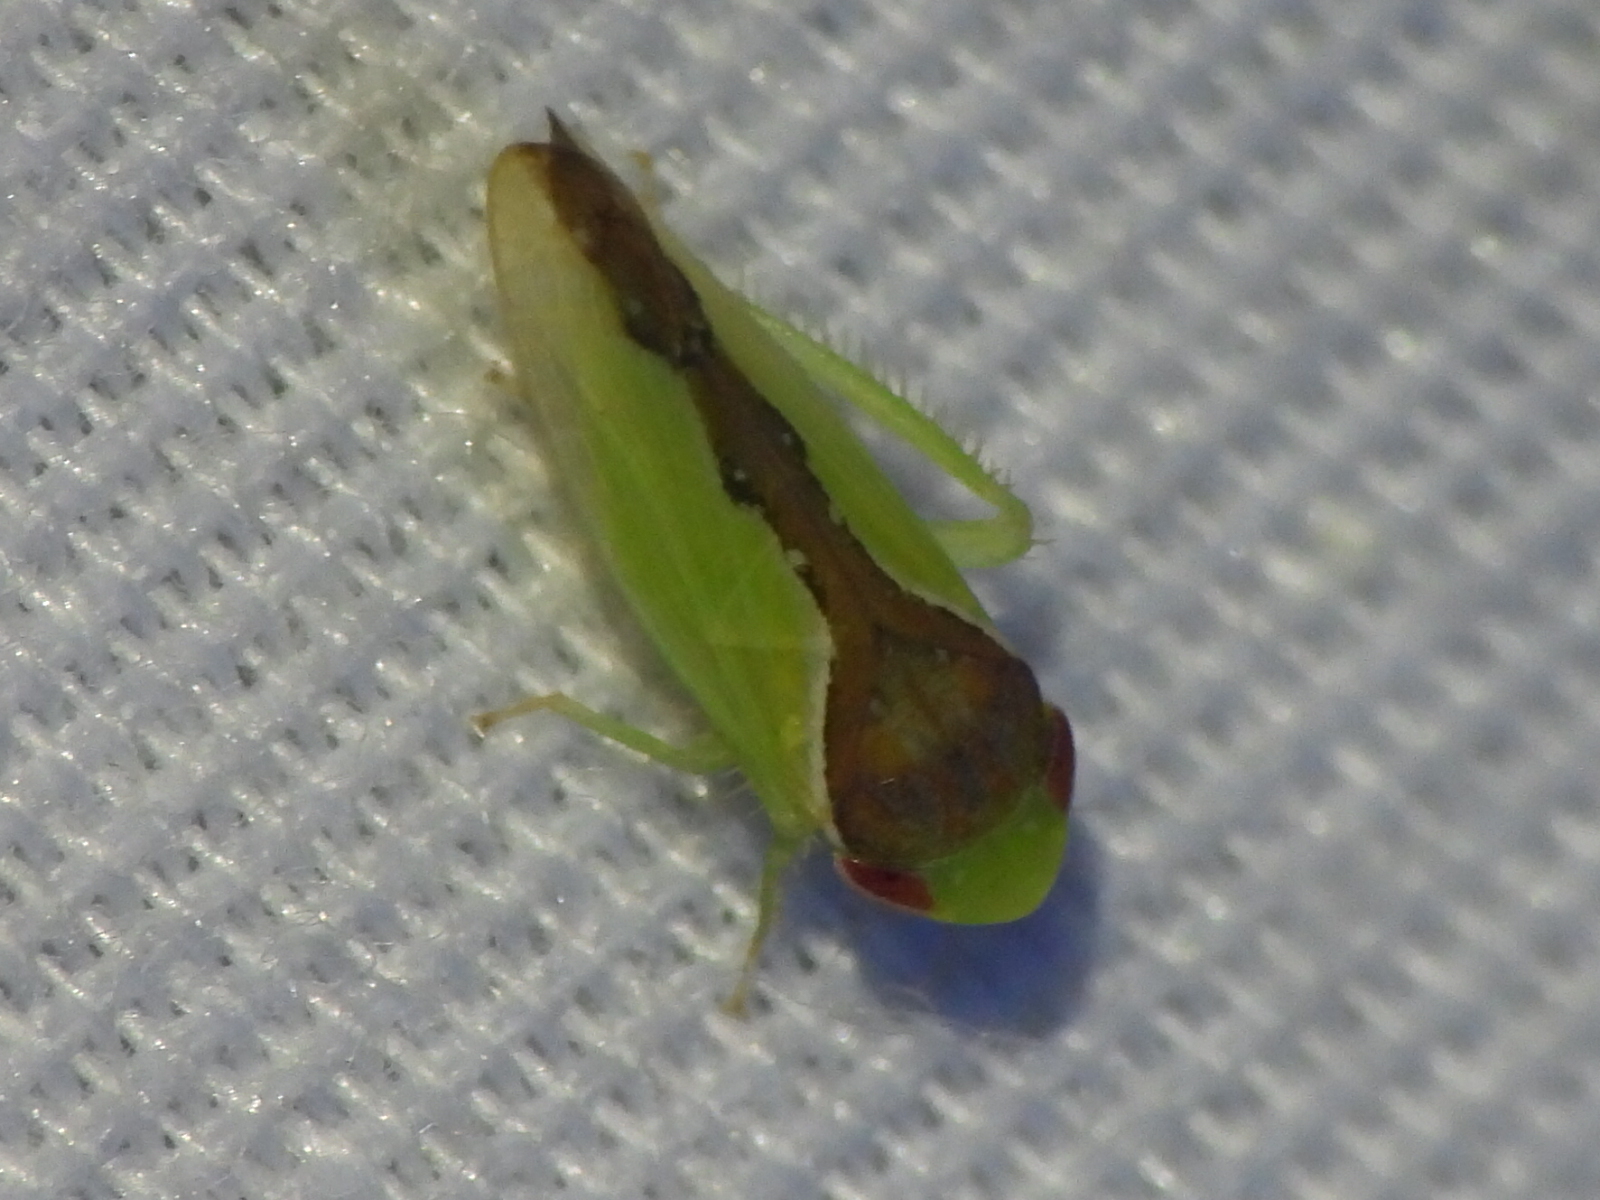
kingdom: Animalia
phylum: Arthropoda
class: Insecta
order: Hemiptera
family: Cicadellidae
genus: Omansobara ing
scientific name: Omansobara ing Omansobara palliolata
